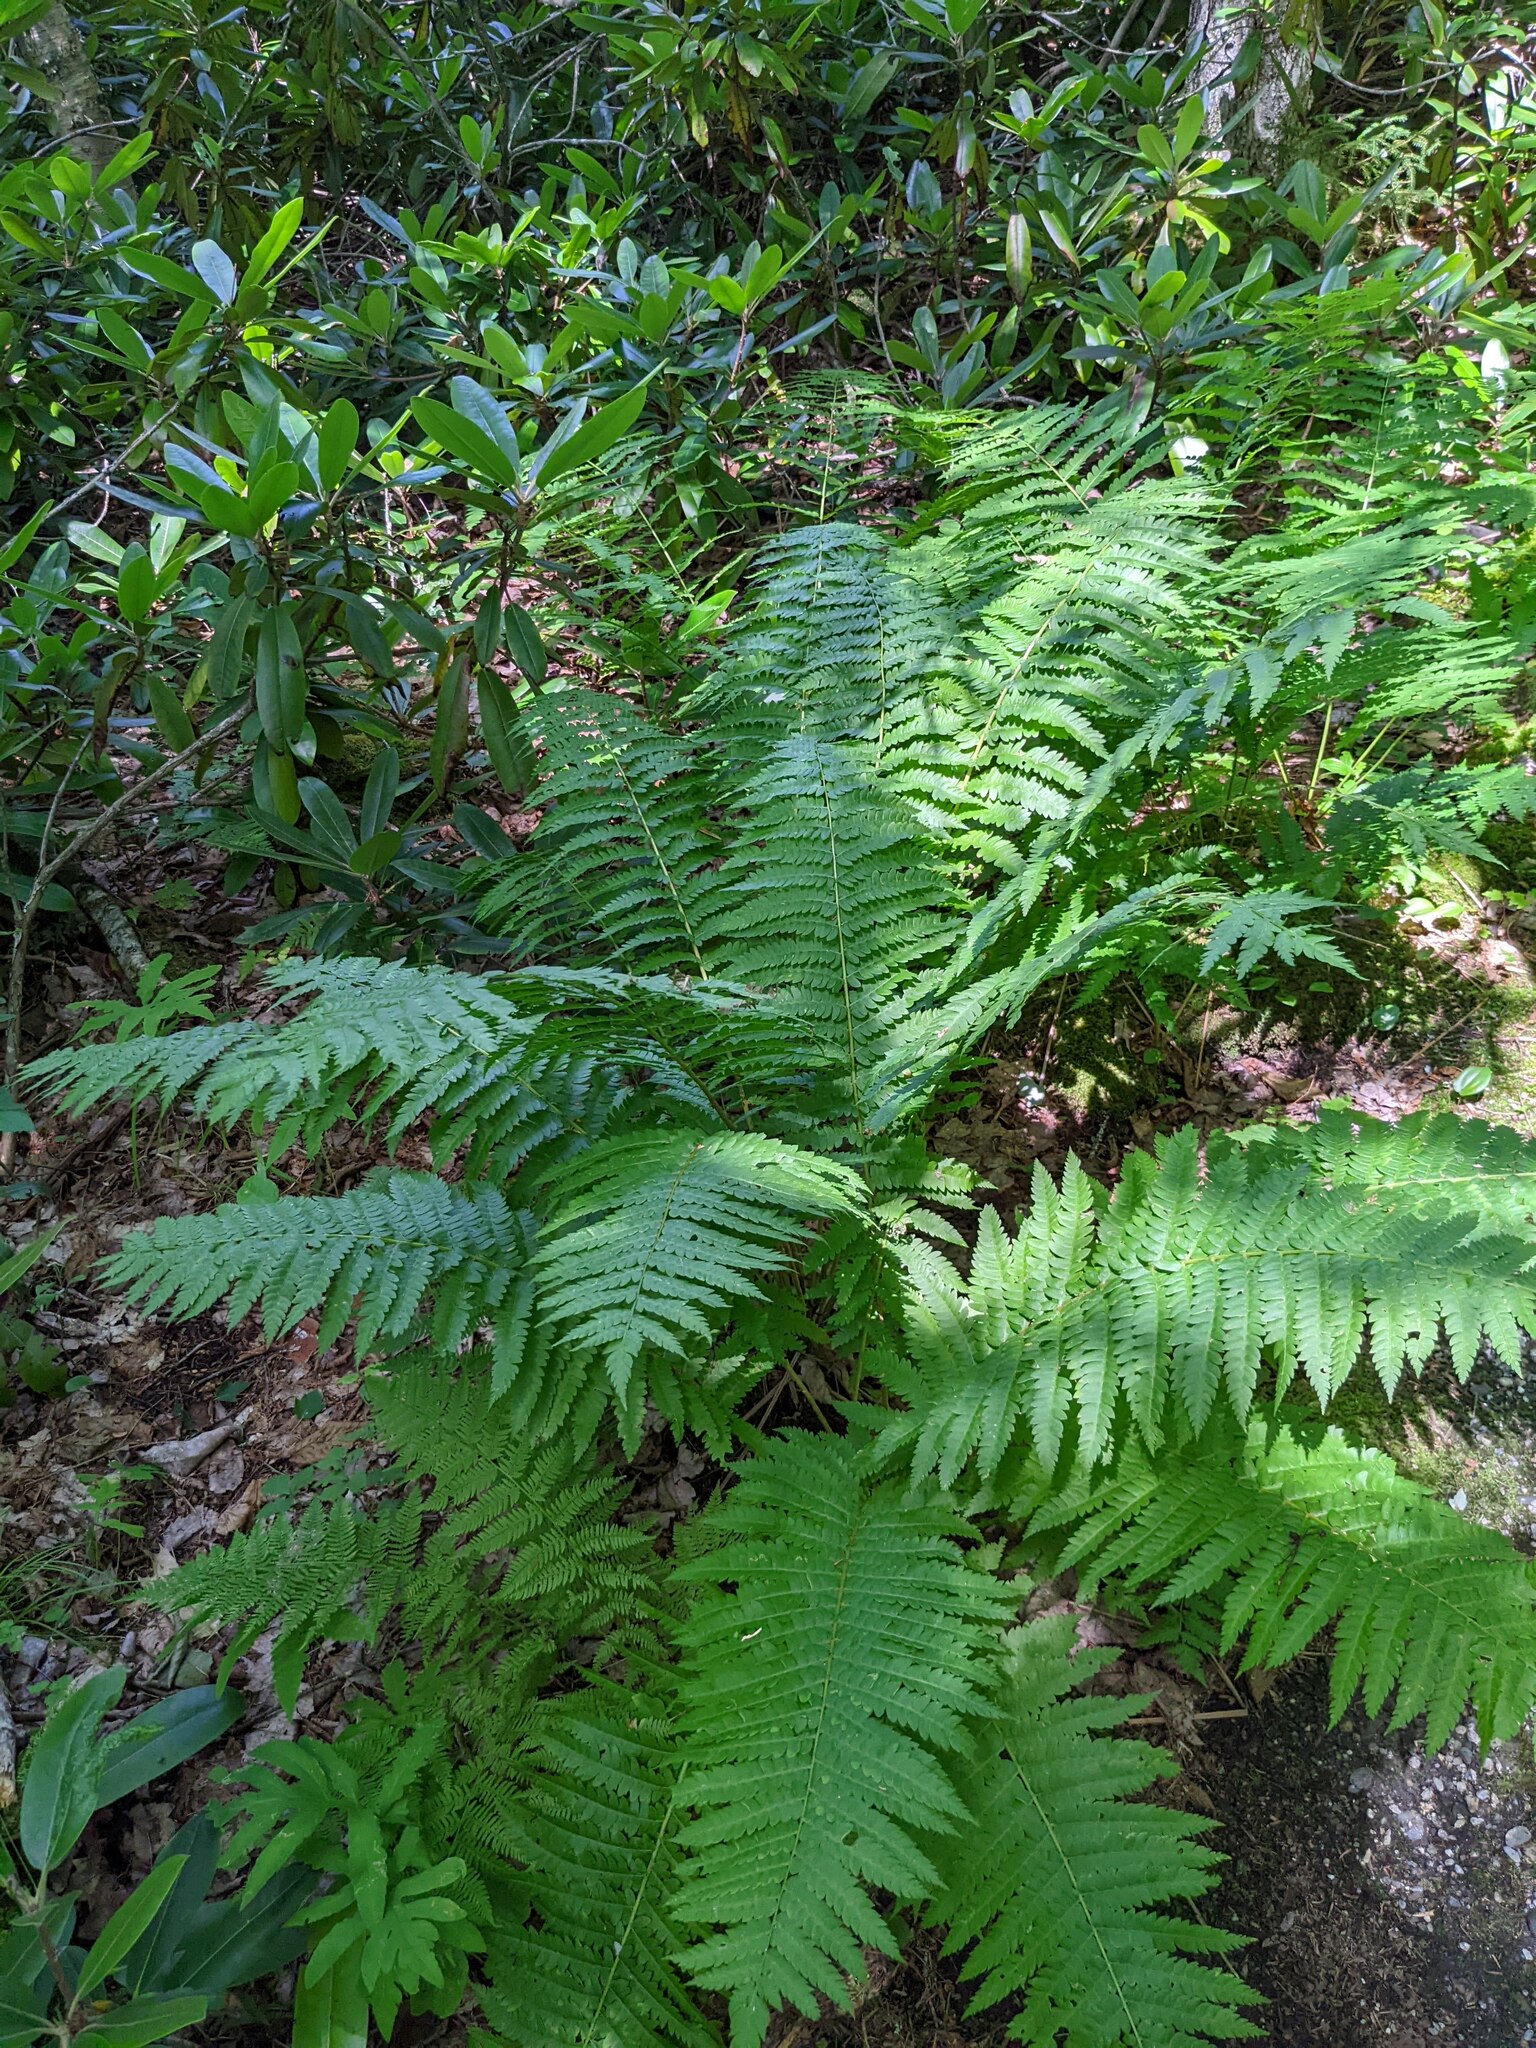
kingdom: Plantae
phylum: Tracheophyta
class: Polypodiopsida
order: Osmundales
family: Osmundaceae
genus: Osmundastrum
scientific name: Osmundastrum cinnamomeum
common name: Cinnamon fern
